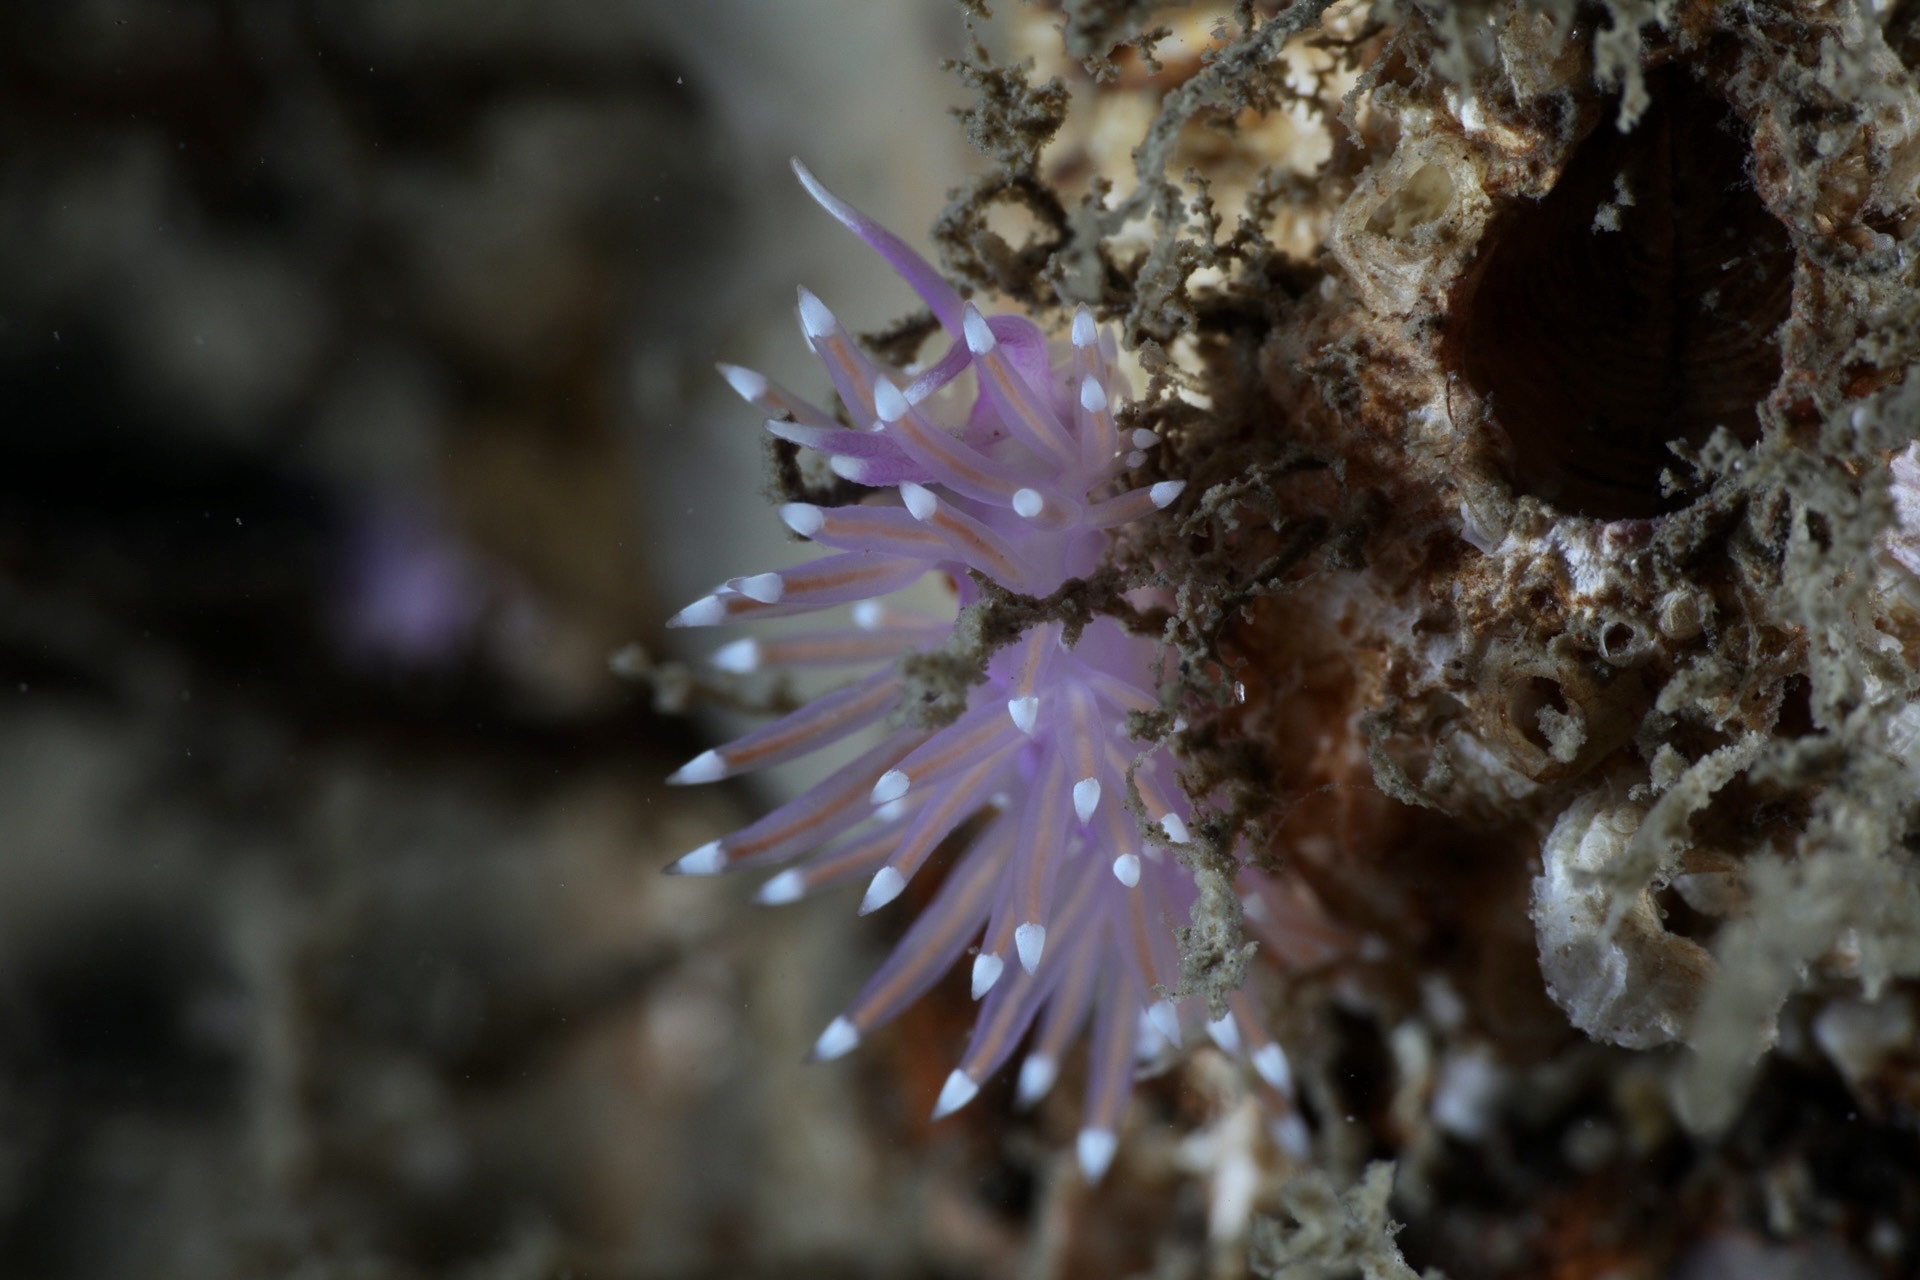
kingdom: Animalia
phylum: Mollusca
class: Gastropoda
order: Nudibranchia
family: Flabellinidae
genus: Edmundsella
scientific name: Edmundsella pedata
